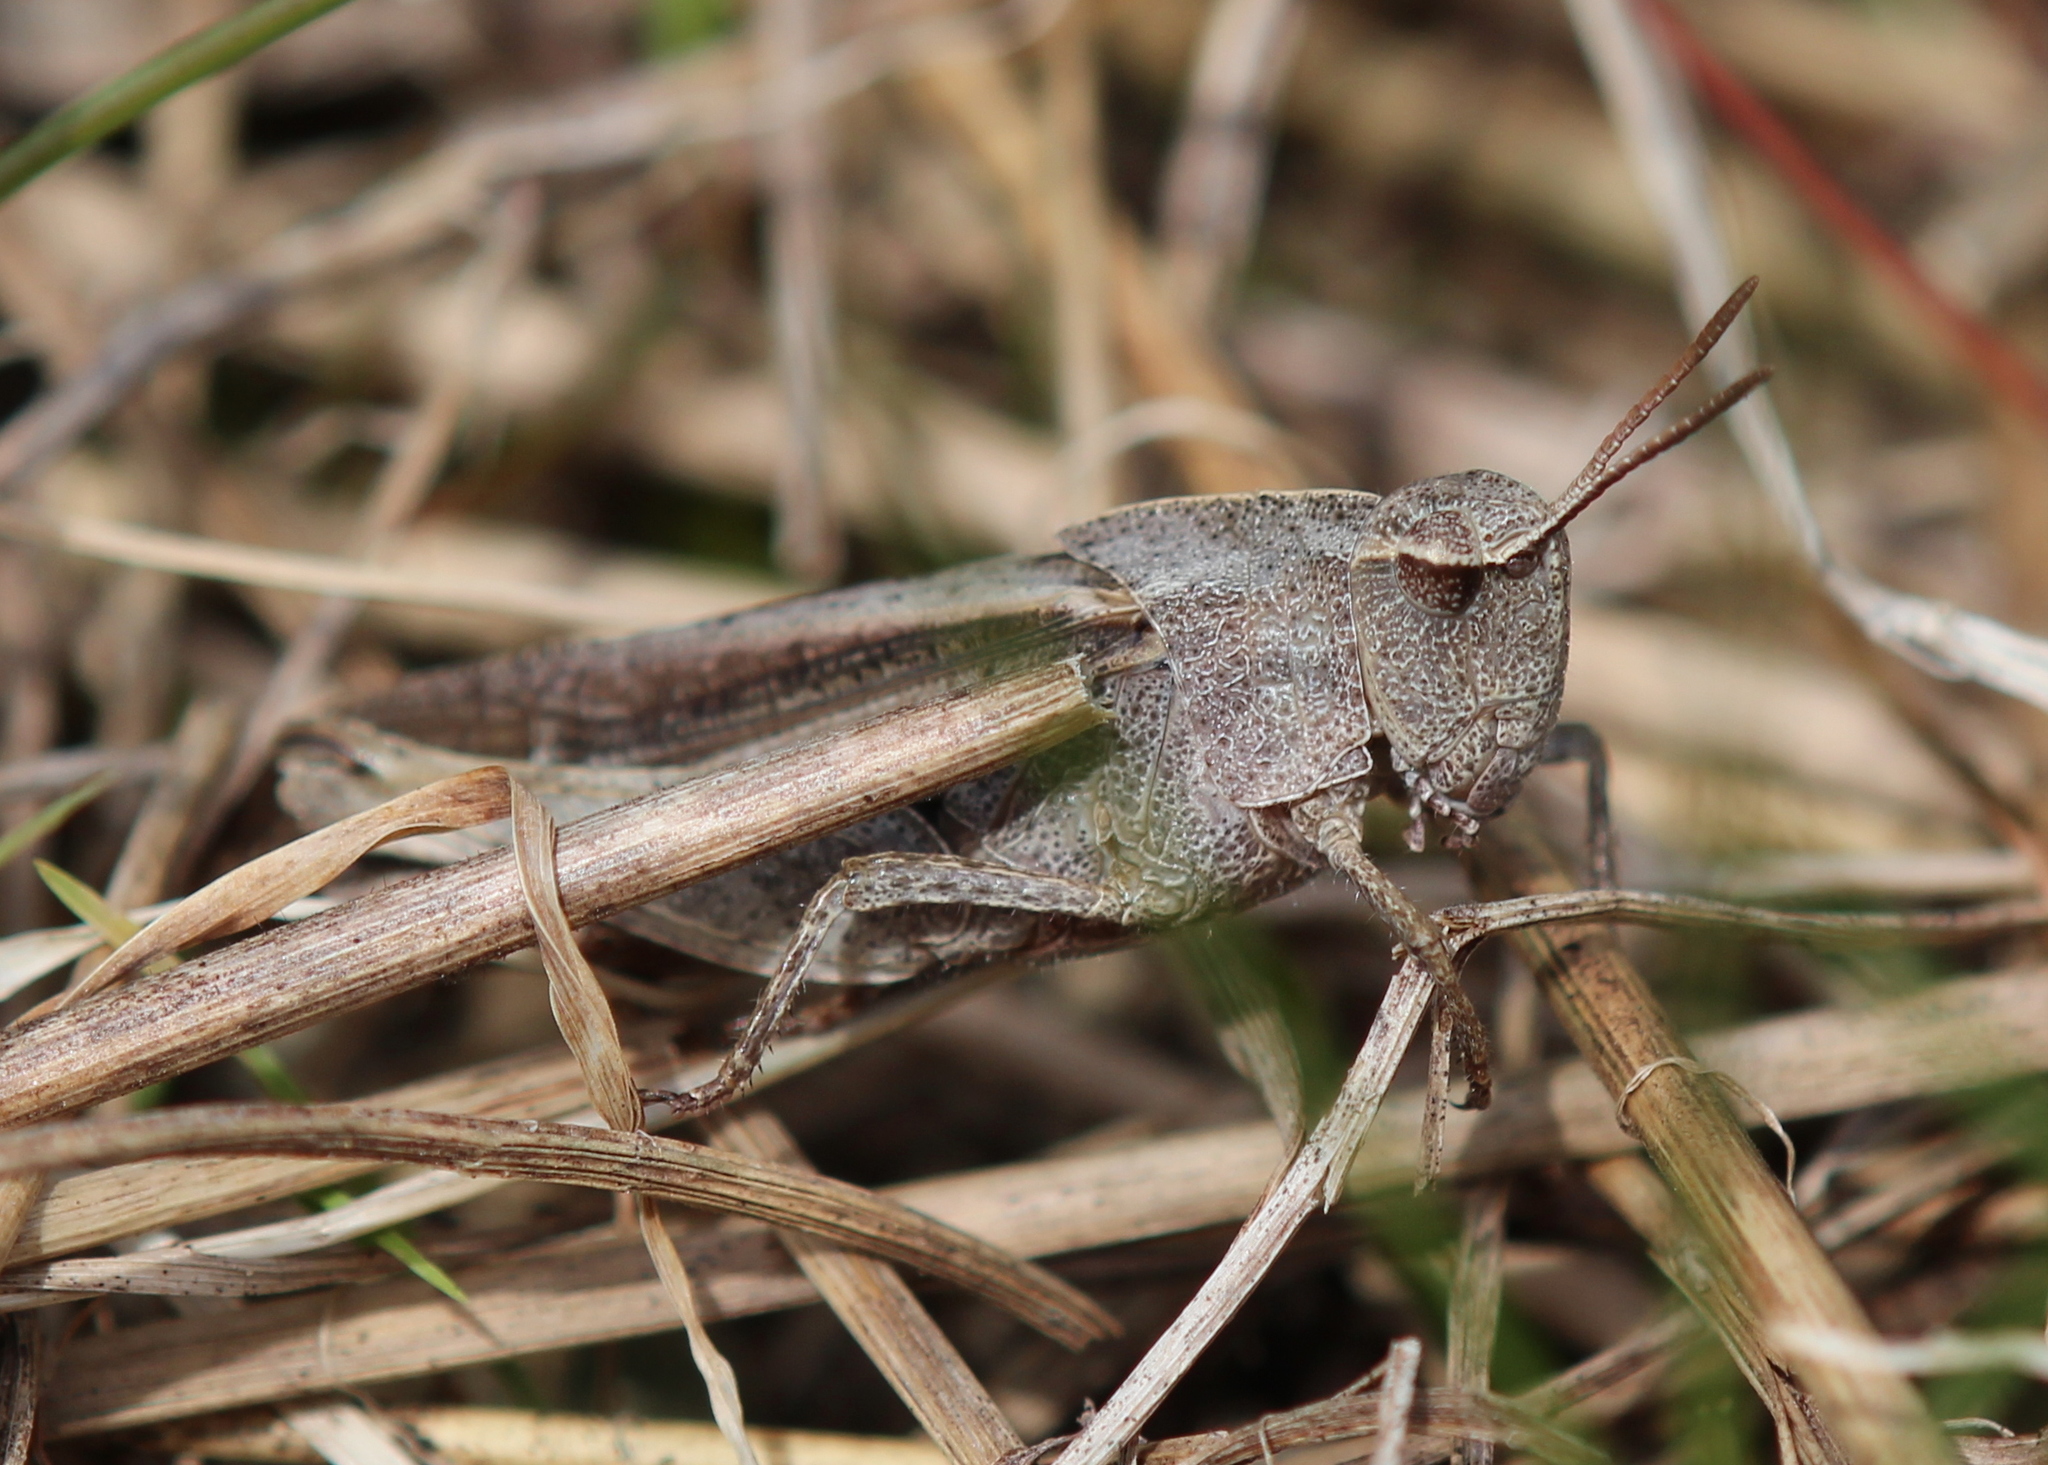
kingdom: Animalia
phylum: Arthropoda
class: Insecta
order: Orthoptera
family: Acrididae
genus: Chortophaga
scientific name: Chortophaga viridifasciata
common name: Green-striped grasshopper
